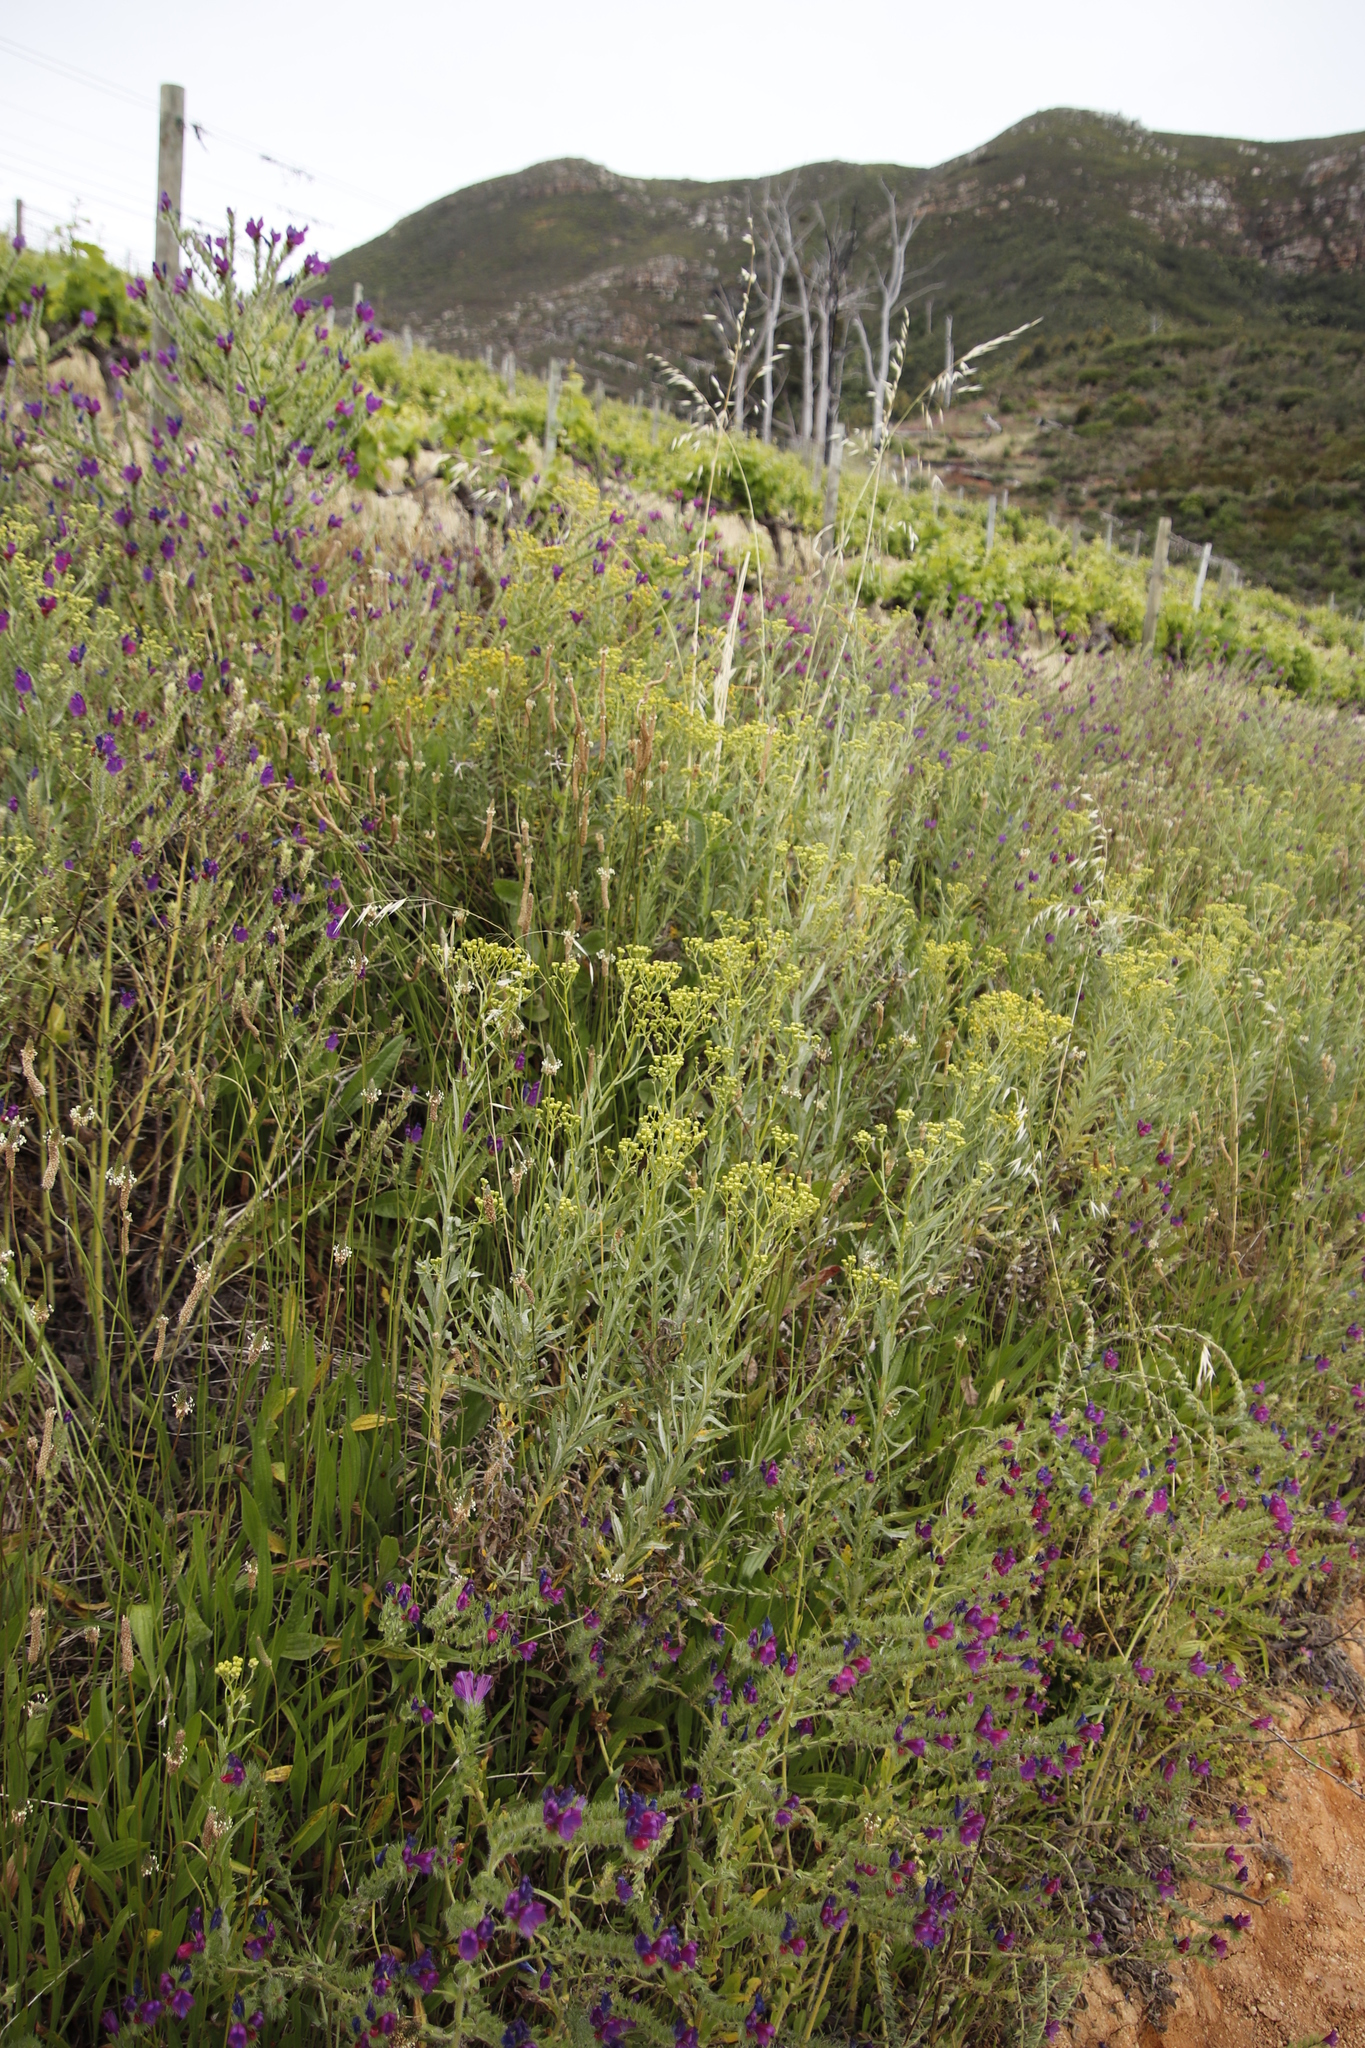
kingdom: Plantae
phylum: Tracheophyta
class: Magnoliopsida
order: Asterales
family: Asteraceae
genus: Senecio
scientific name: Senecio pterophorus
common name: Shoddy ragwort
